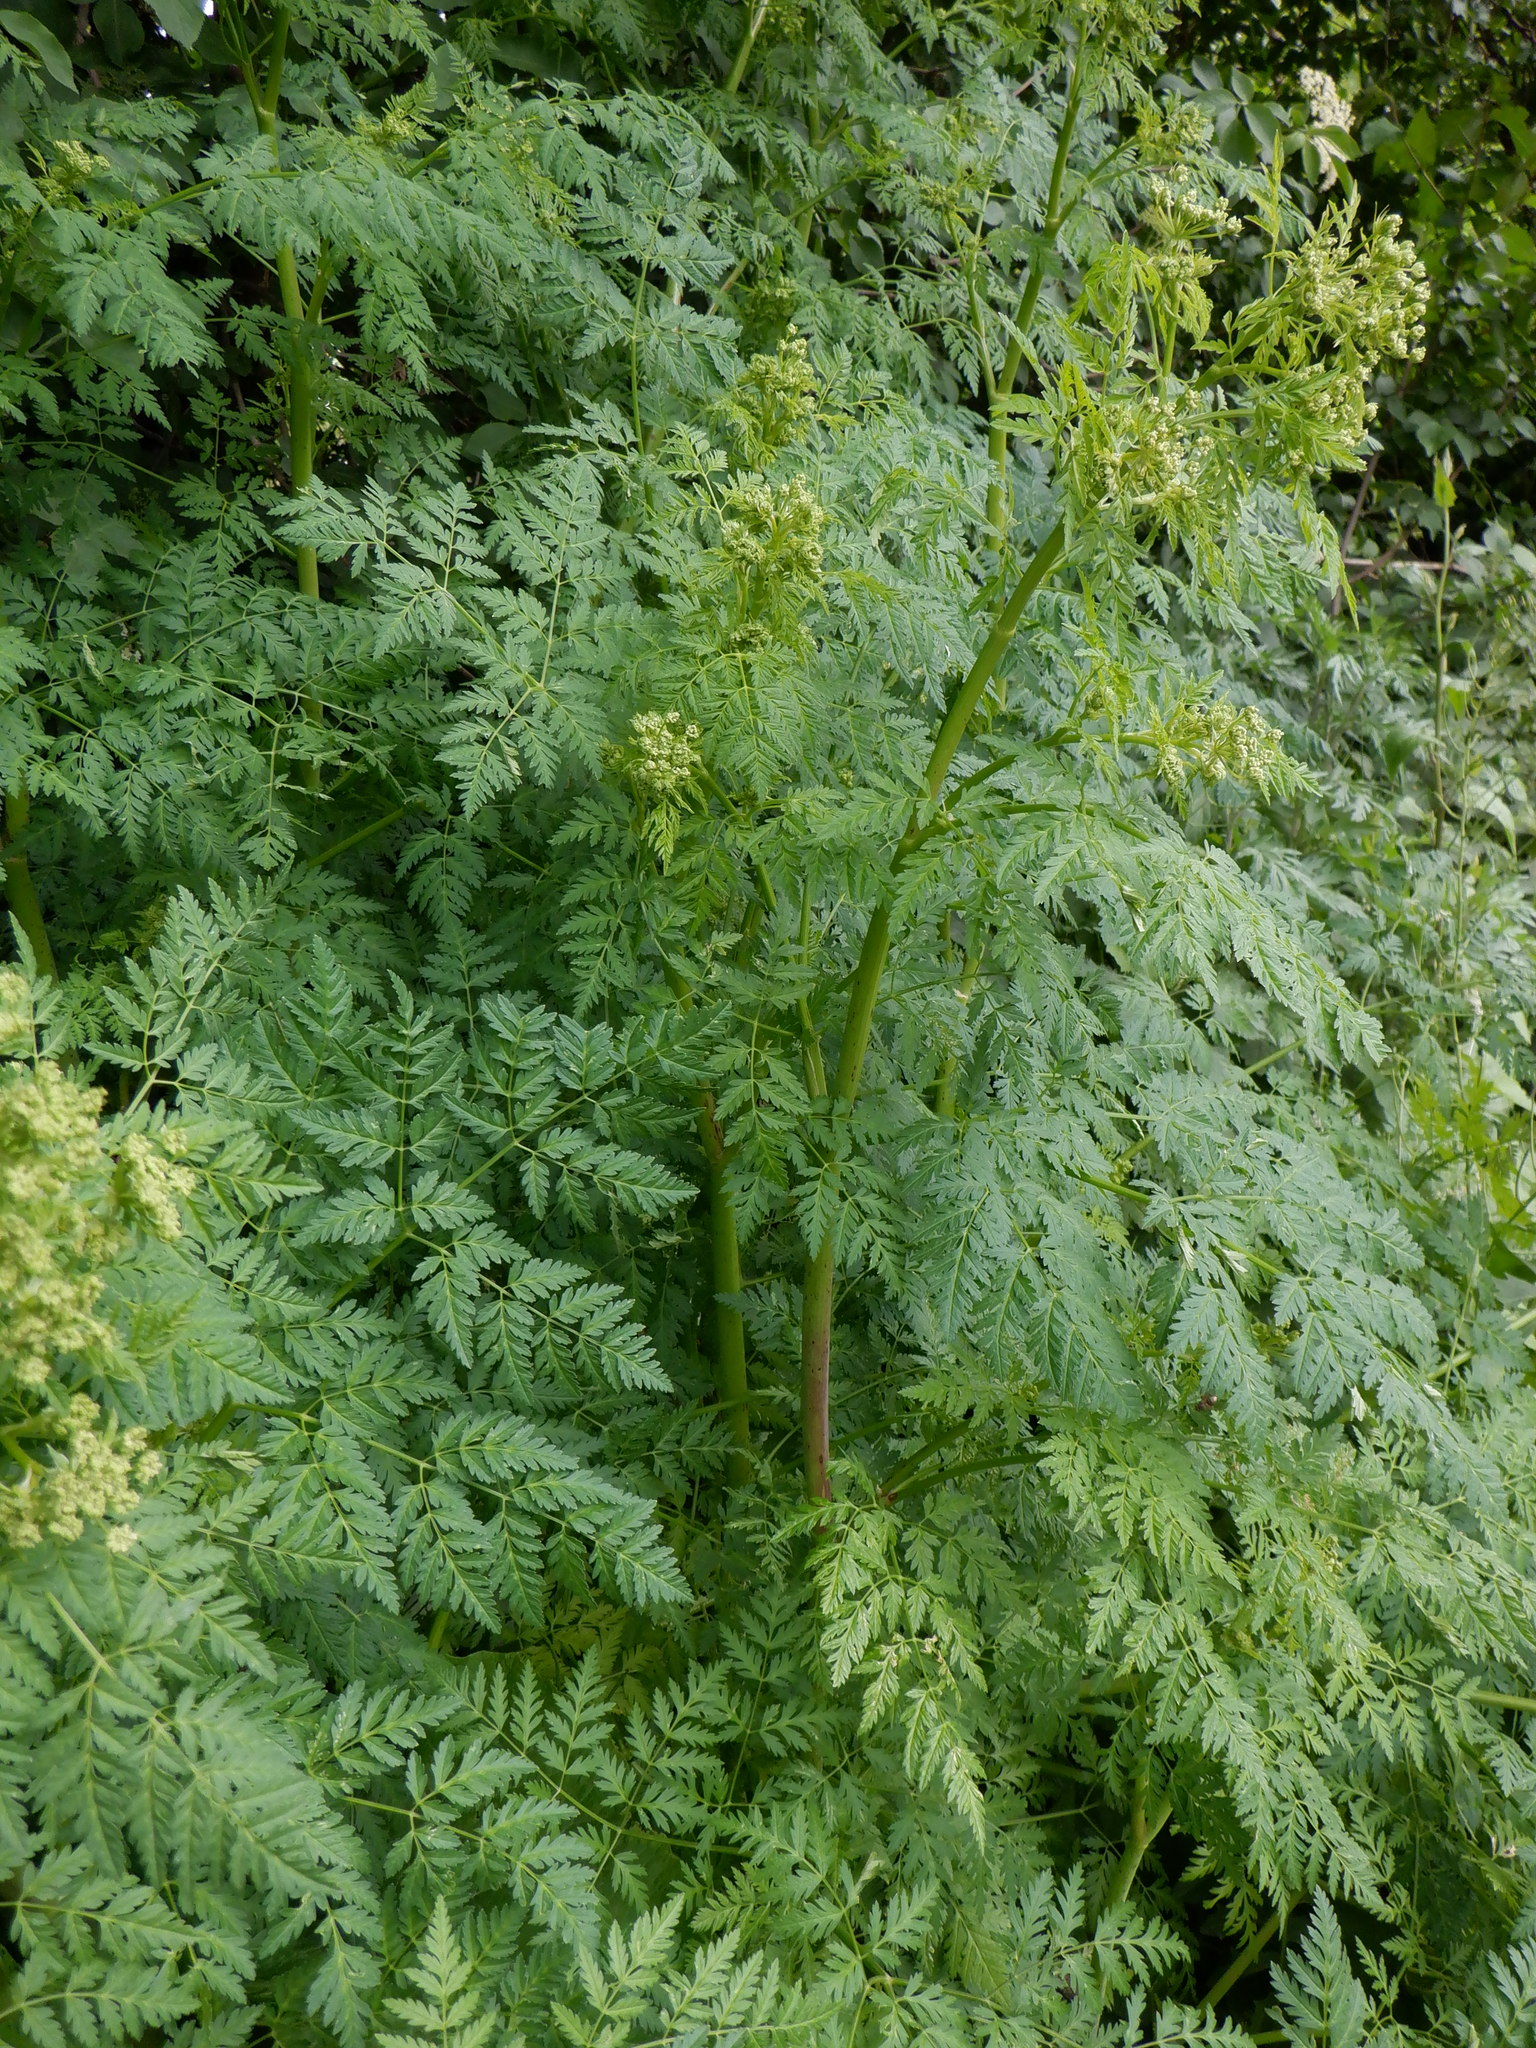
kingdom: Plantae
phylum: Tracheophyta
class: Magnoliopsida
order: Apiales
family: Apiaceae
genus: Conium
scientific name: Conium maculatum
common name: Hemlock
